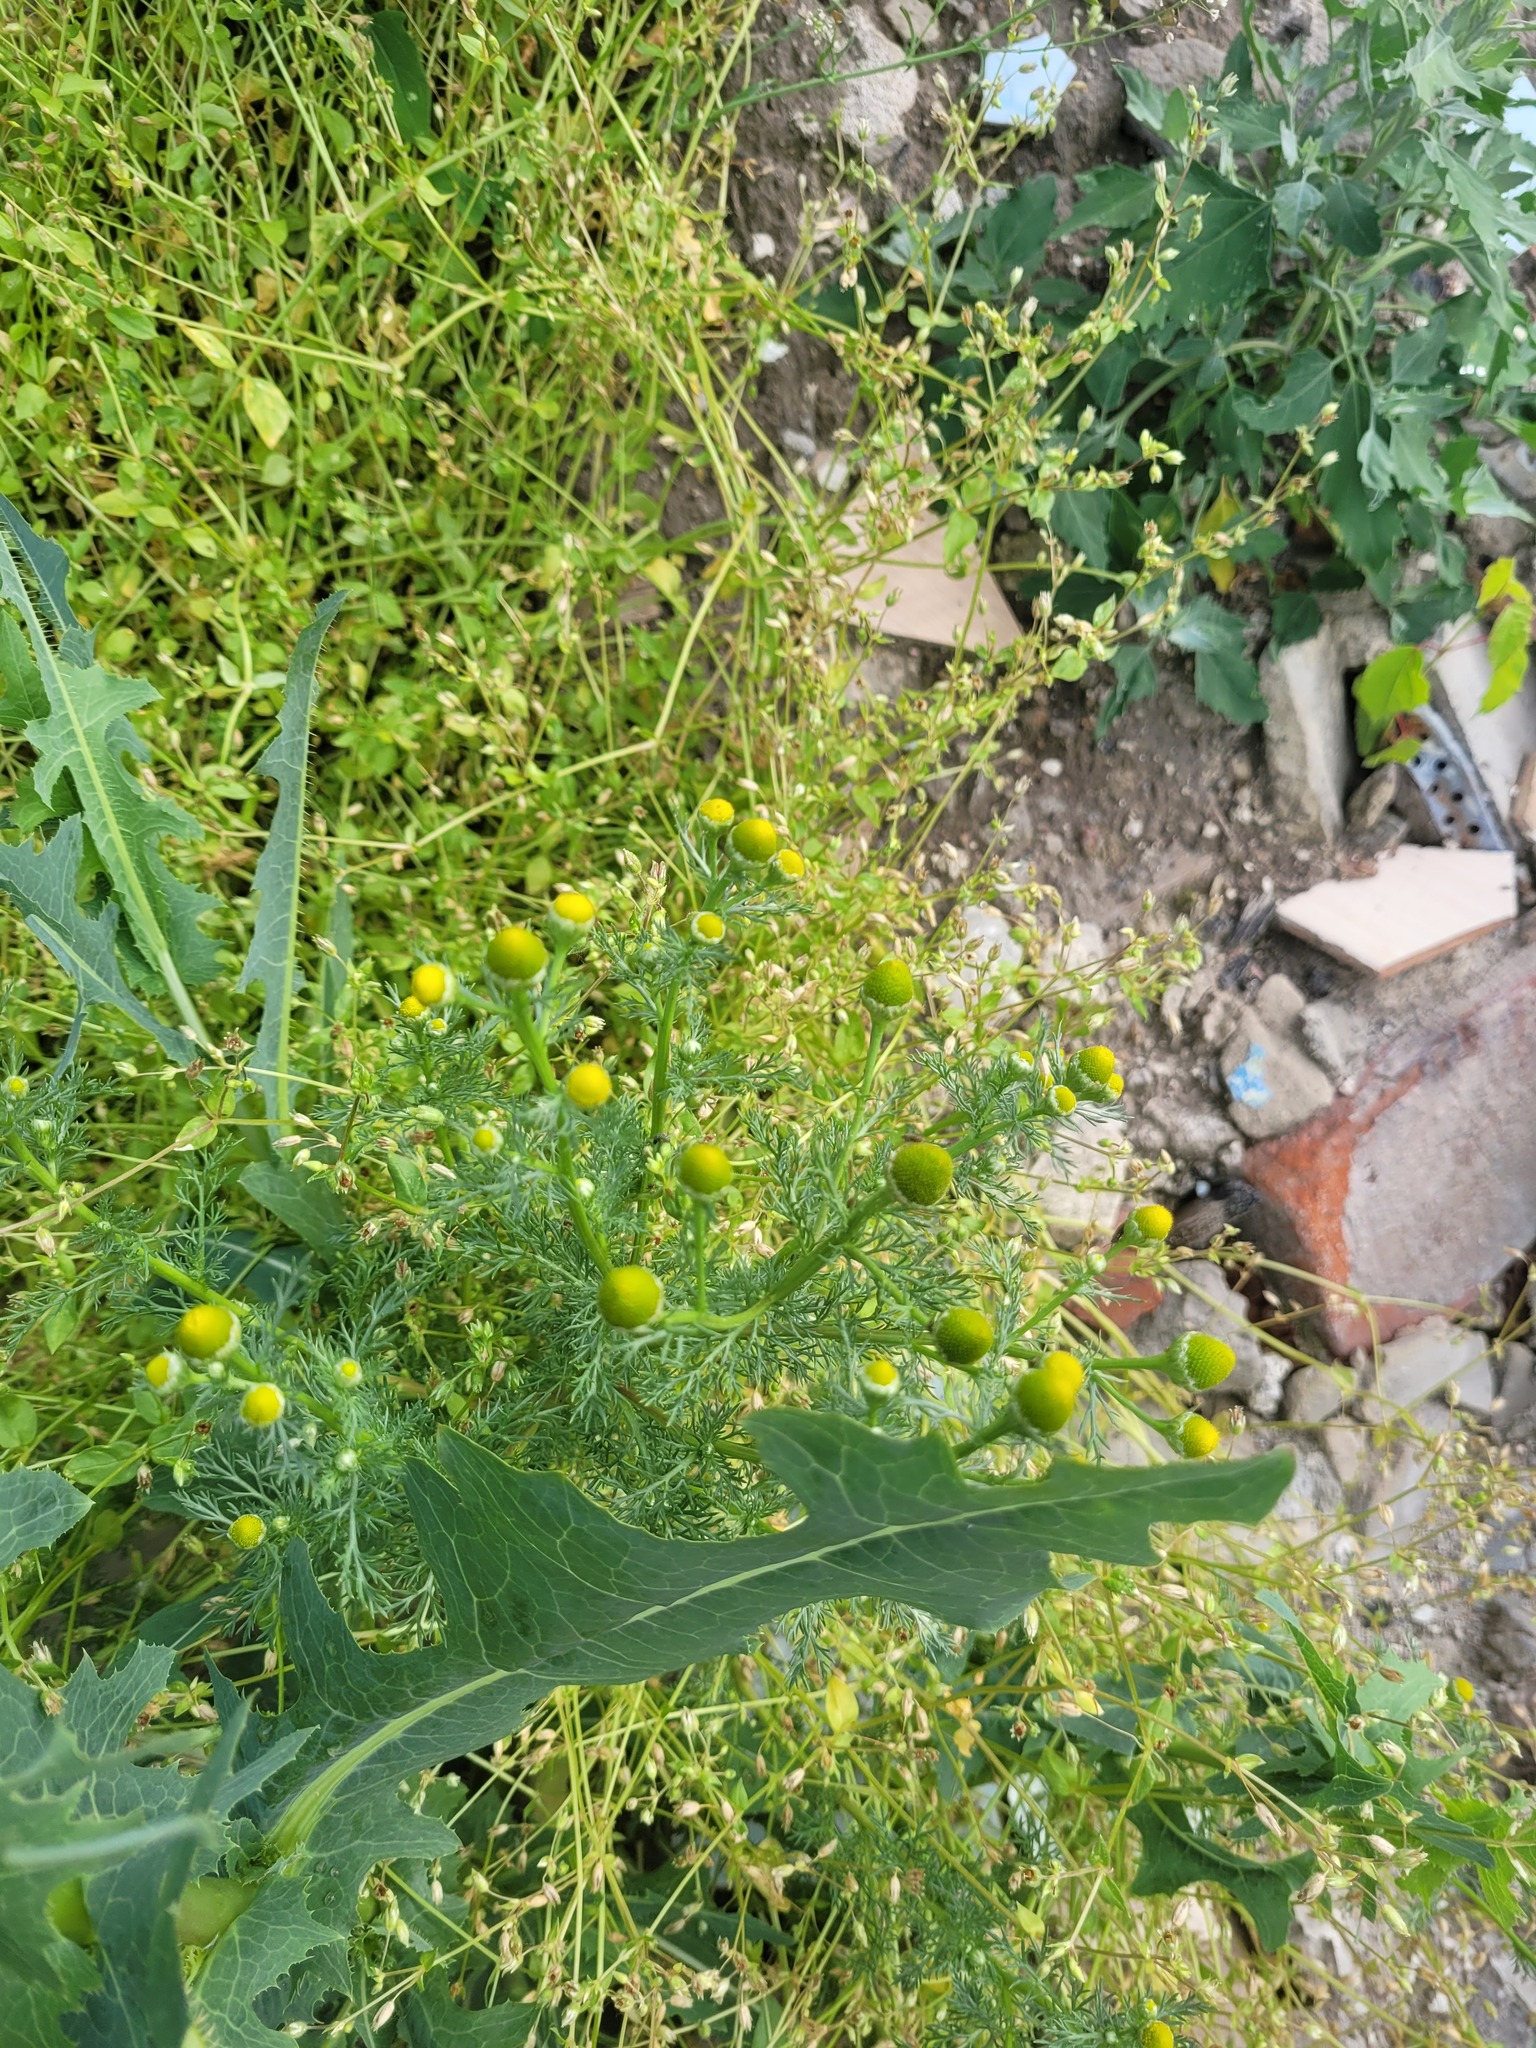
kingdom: Plantae
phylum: Tracheophyta
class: Magnoliopsida
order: Asterales
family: Asteraceae
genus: Matricaria
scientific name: Matricaria discoidea
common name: Disc mayweed
